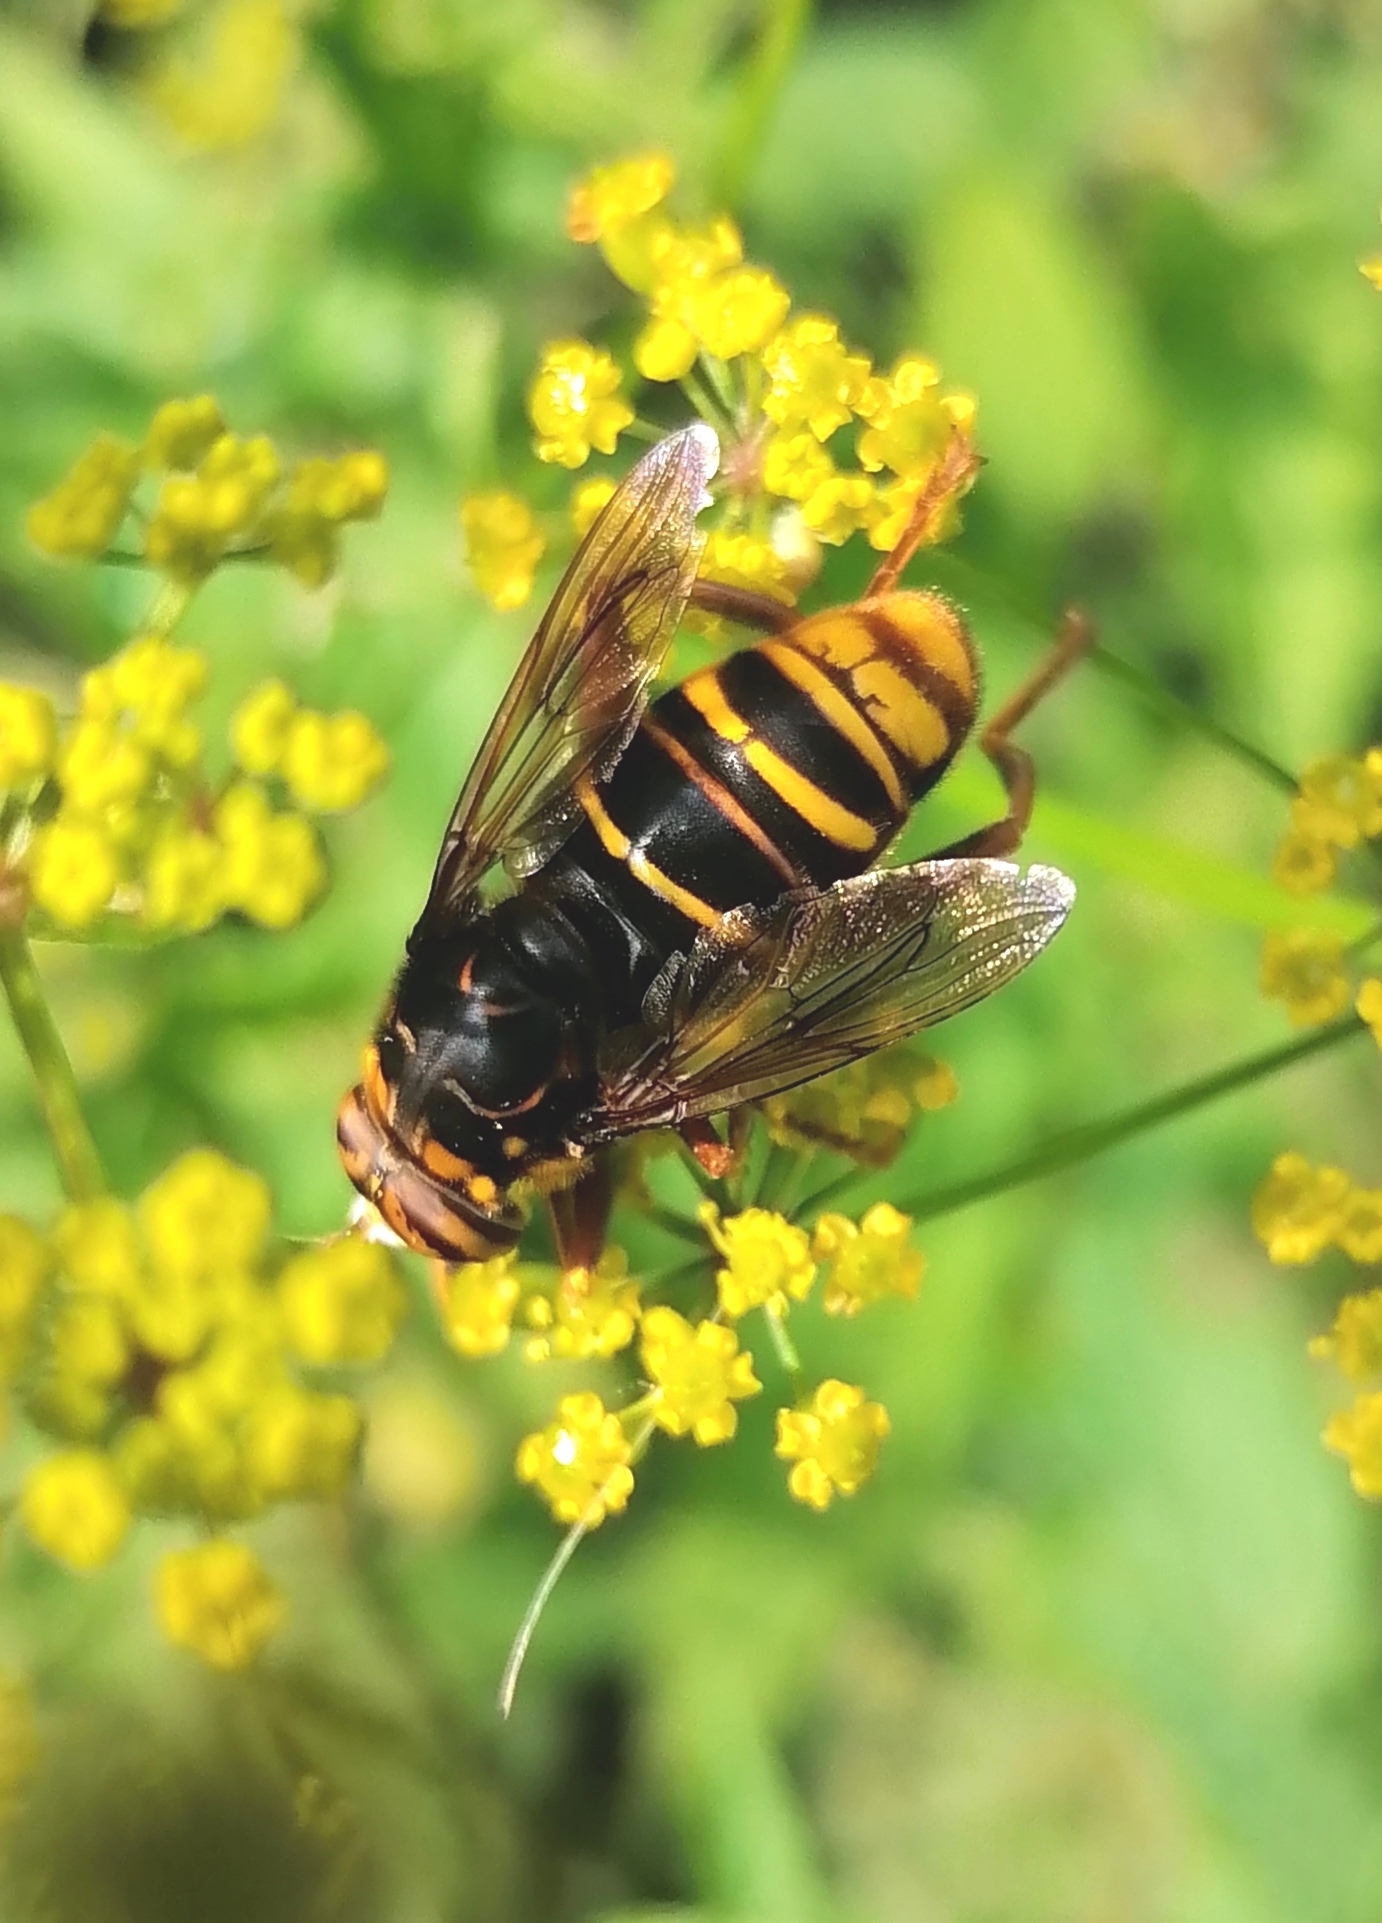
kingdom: Animalia
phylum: Arthropoda
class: Insecta
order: Diptera
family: Syrphidae
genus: Spilomyia
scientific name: Spilomyia maxima
